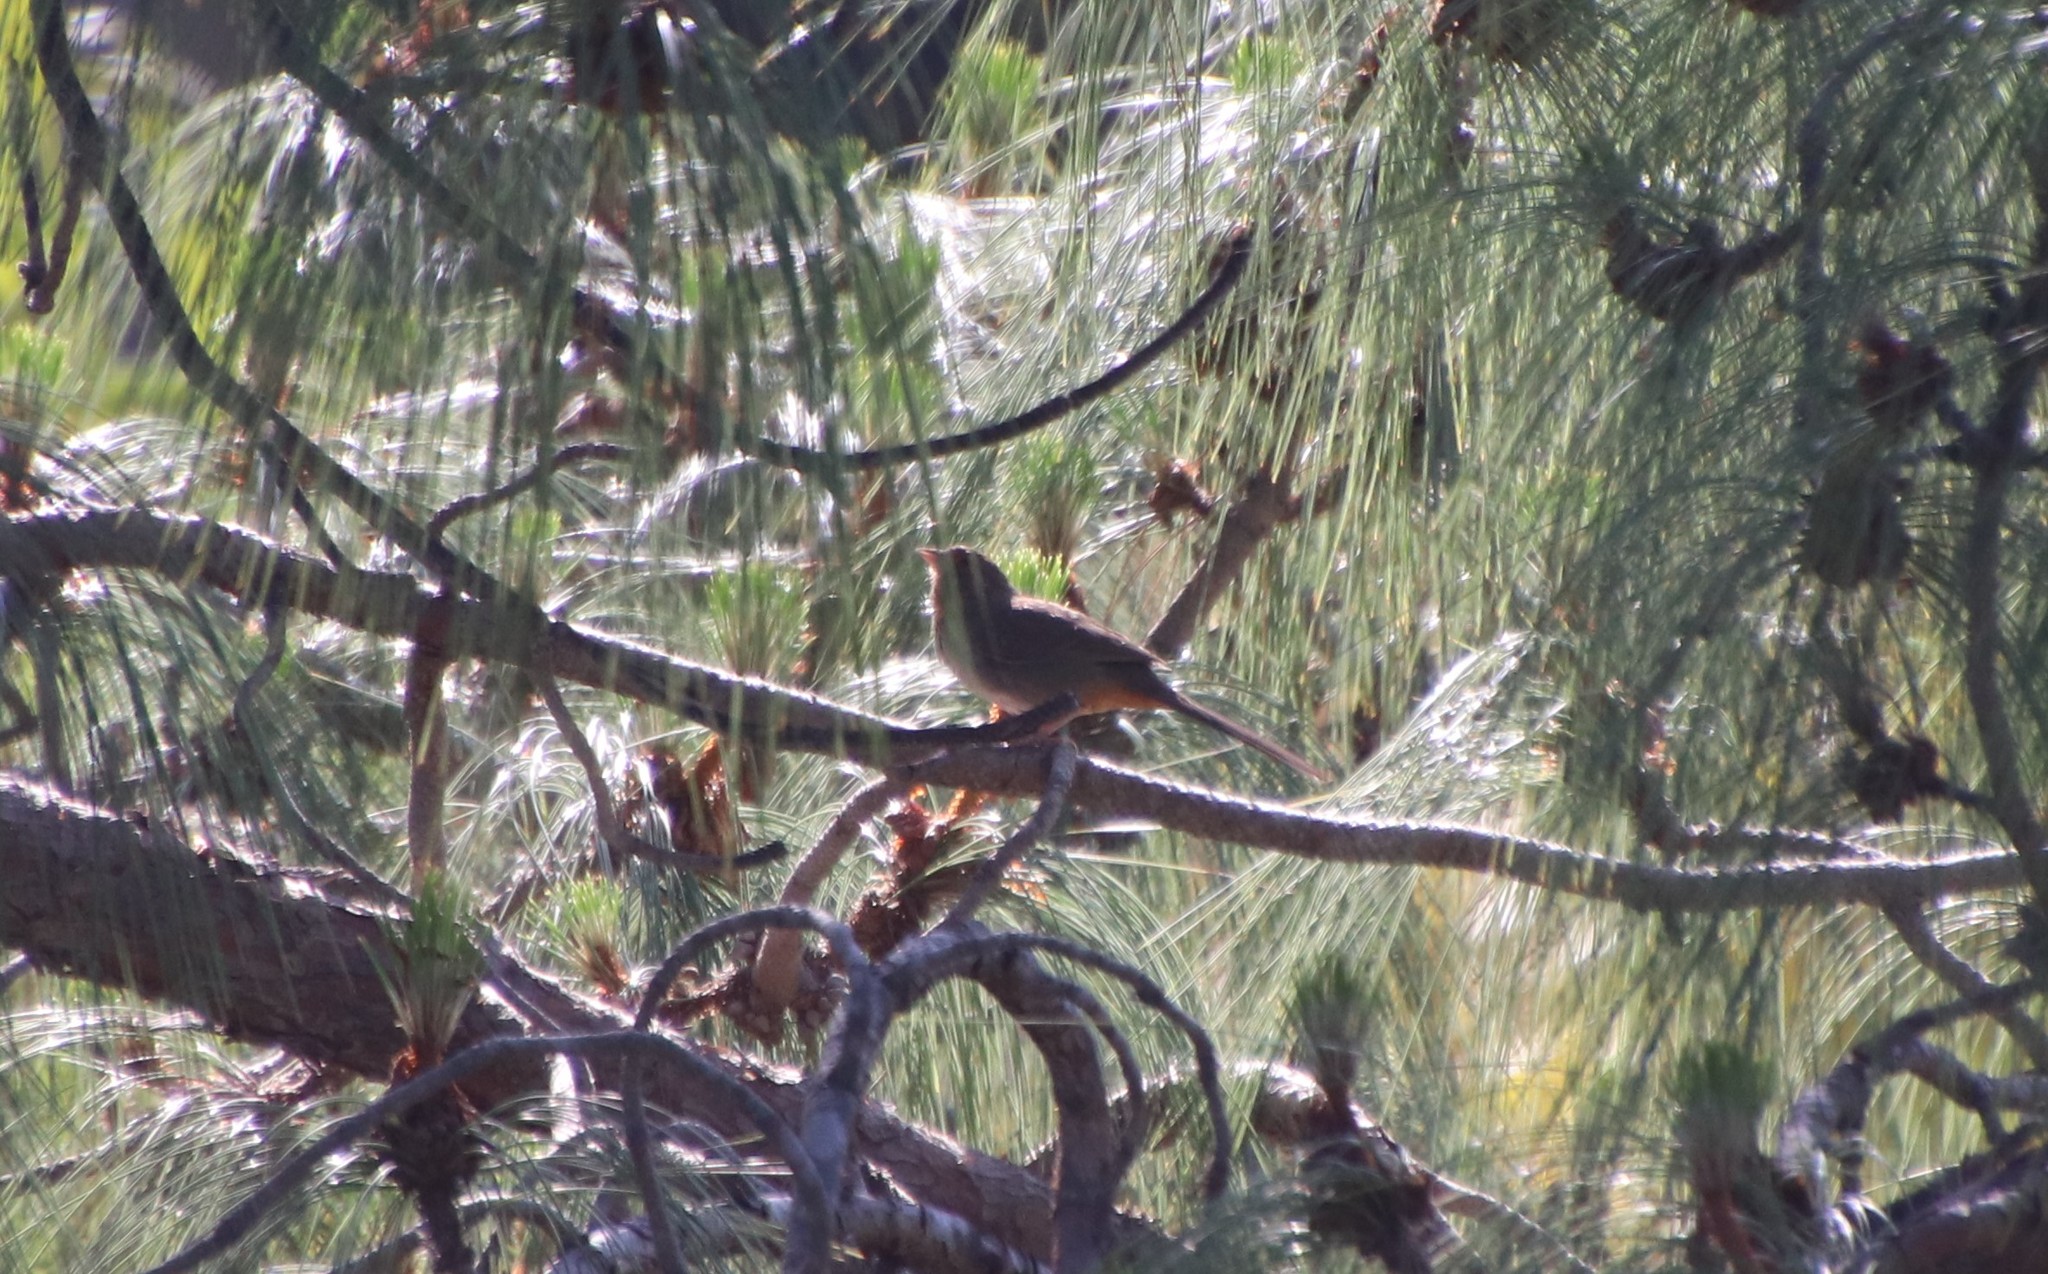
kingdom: Animalia
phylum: Chordata
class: Aves
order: Passeriformes
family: Passerellidae
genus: Melozone
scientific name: Melozone crissalis
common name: California towhee
